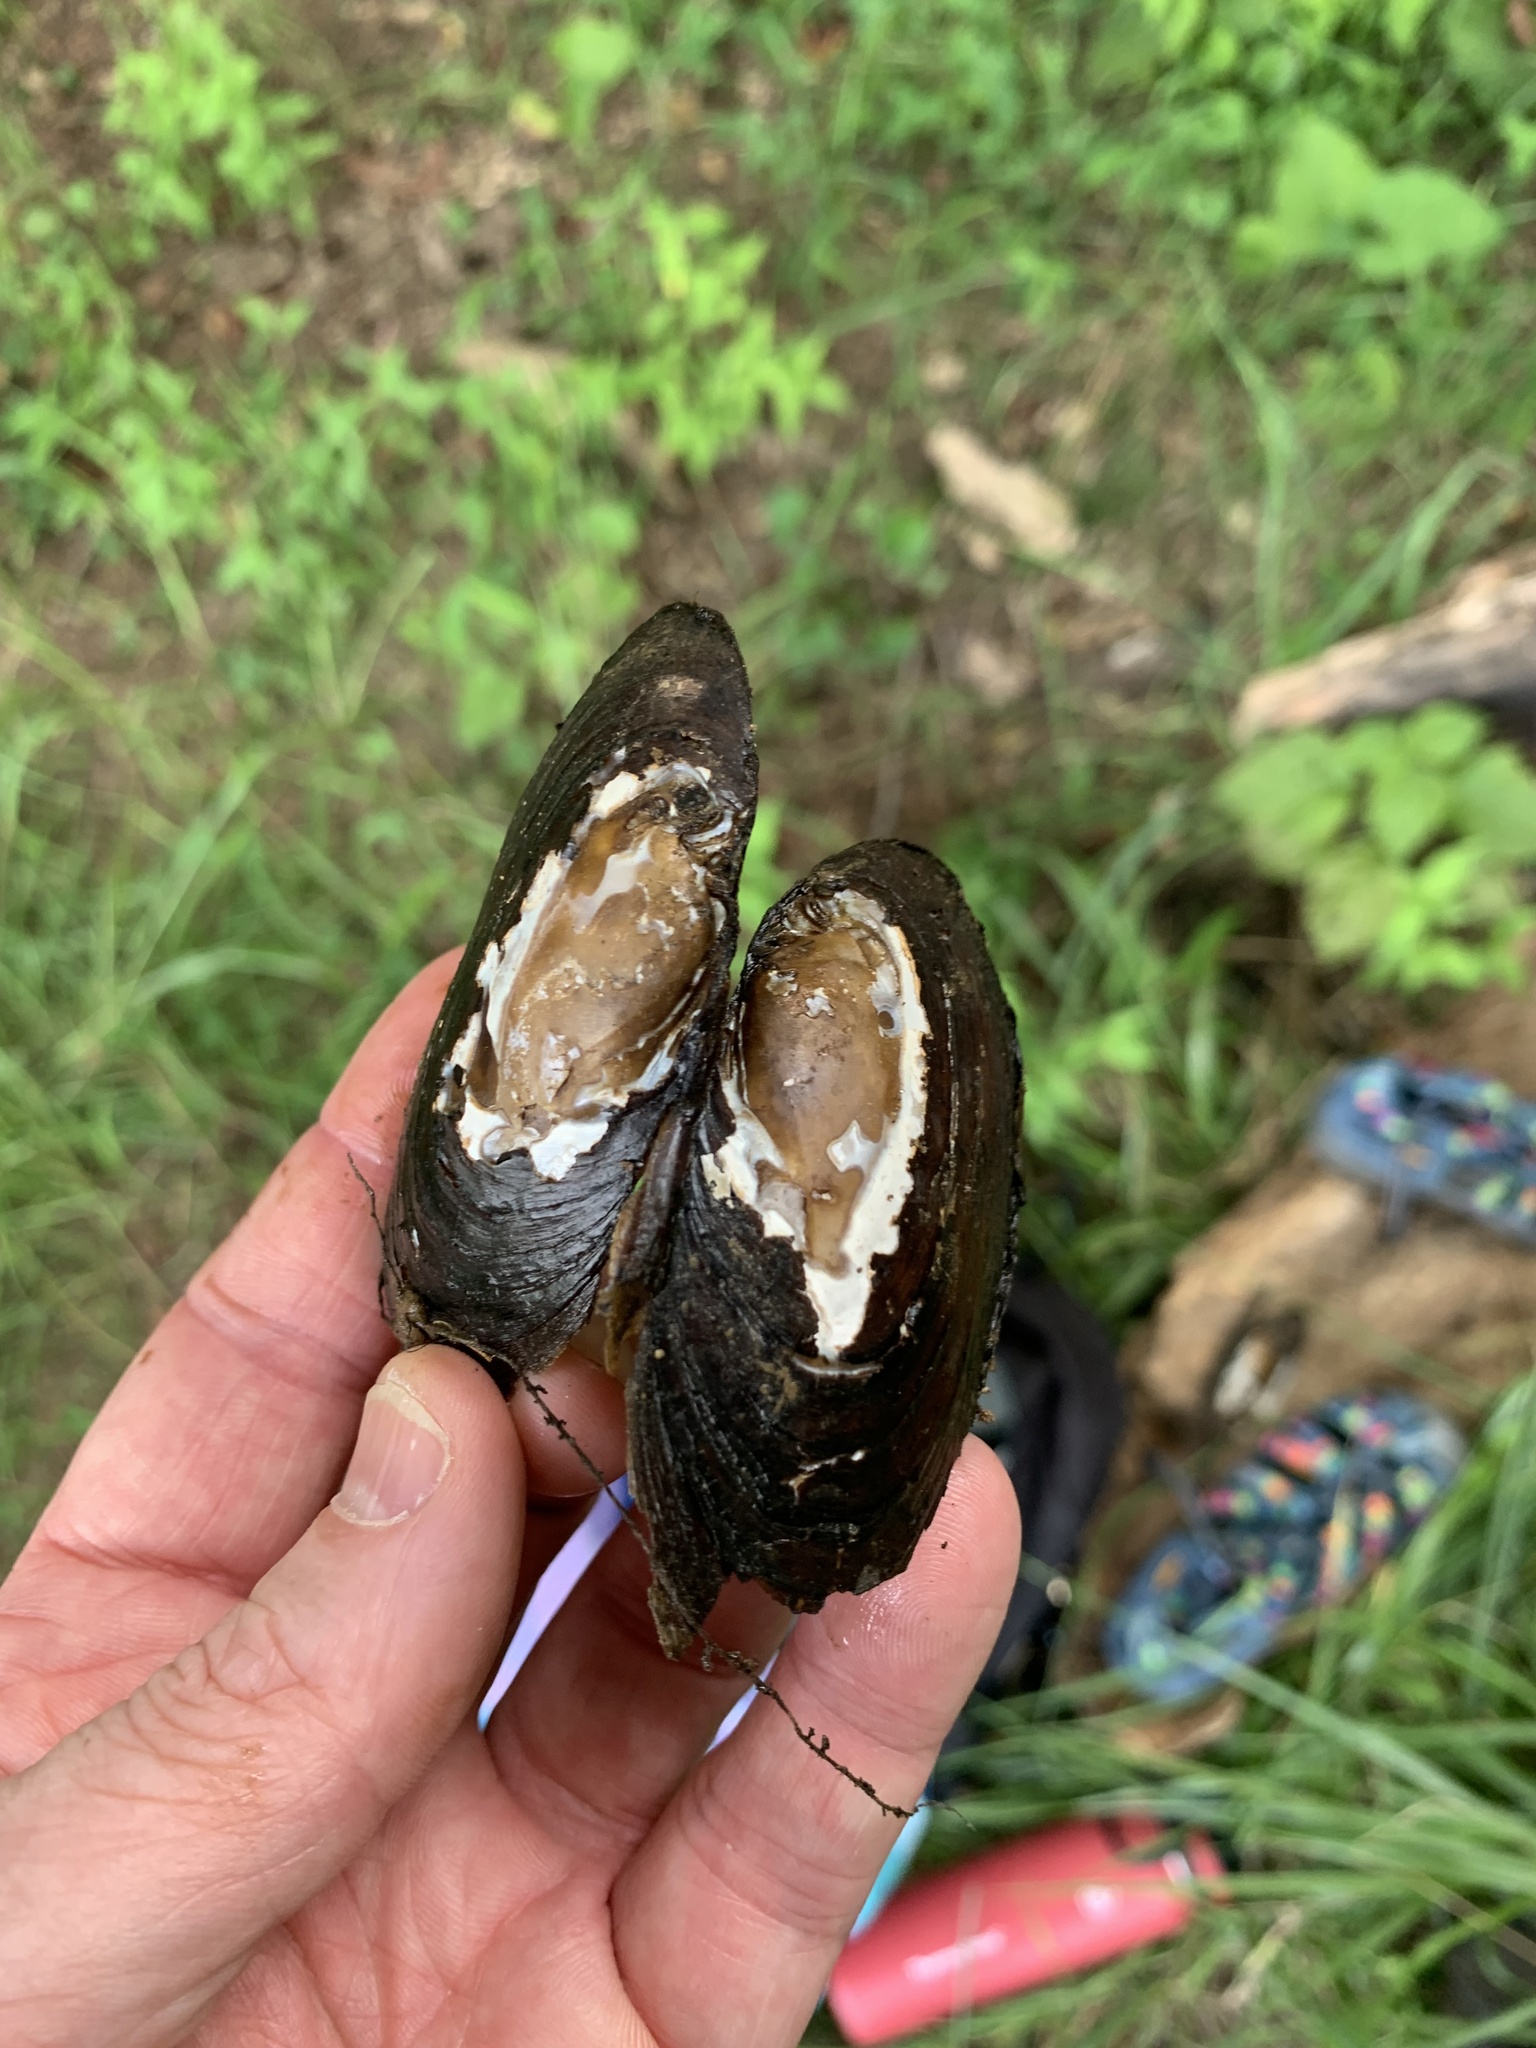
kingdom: Animalia
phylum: Mollusca
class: Bivalvia
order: Unionida
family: Unionidae
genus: Elliptio
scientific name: Elliptio complanata
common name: Eastern elliptio
